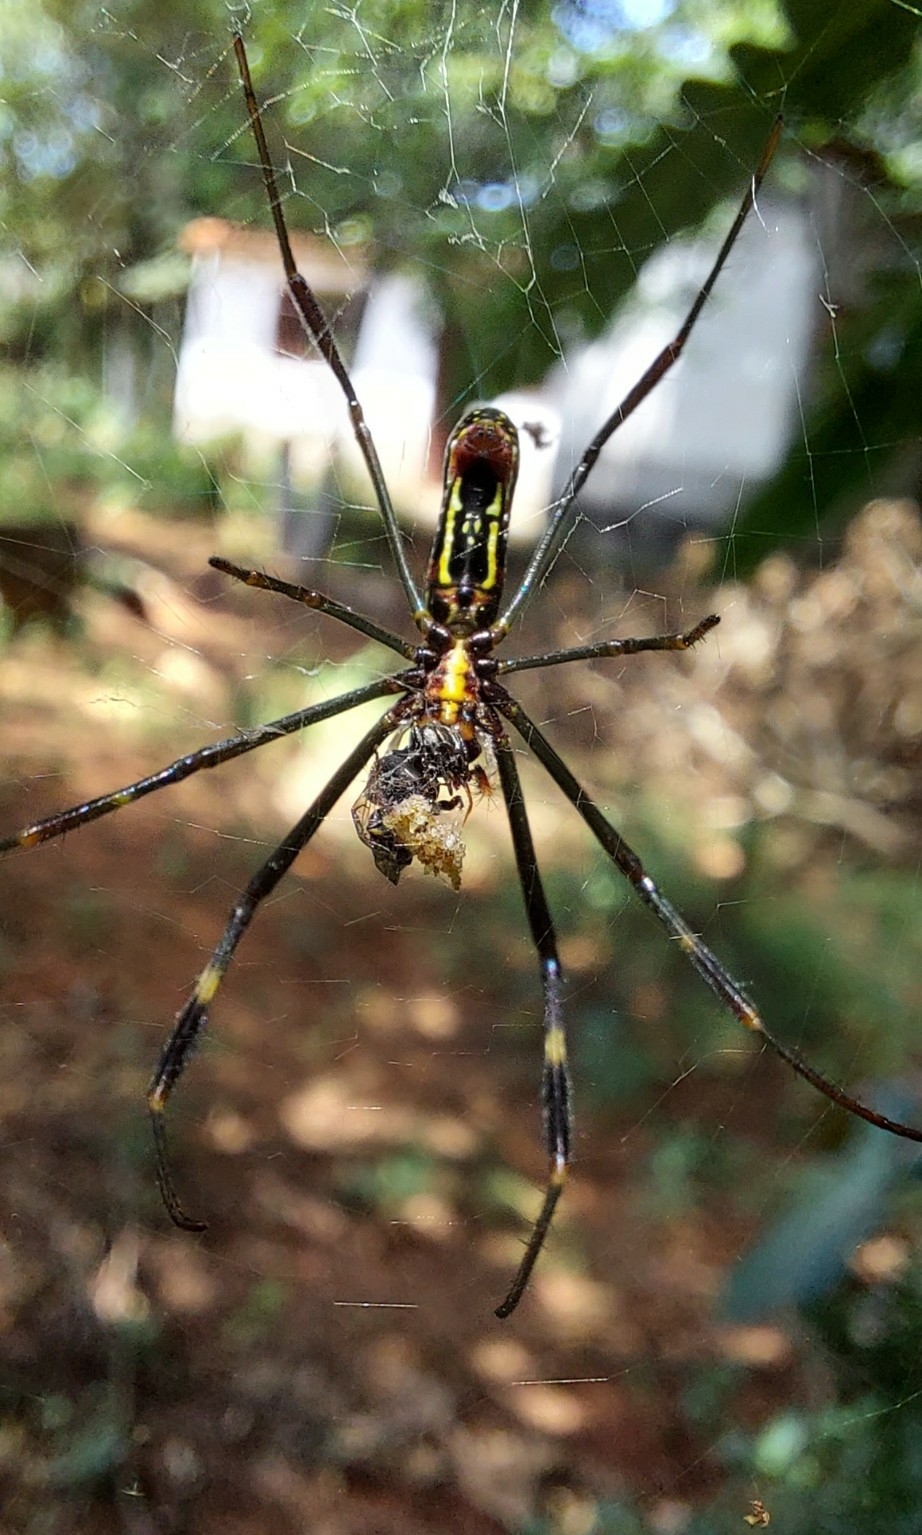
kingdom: Animalia
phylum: Arthropoda
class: Arachnida
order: Araneae
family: Araneidae
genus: Trichonephila
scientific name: Trichonephila clavipes
